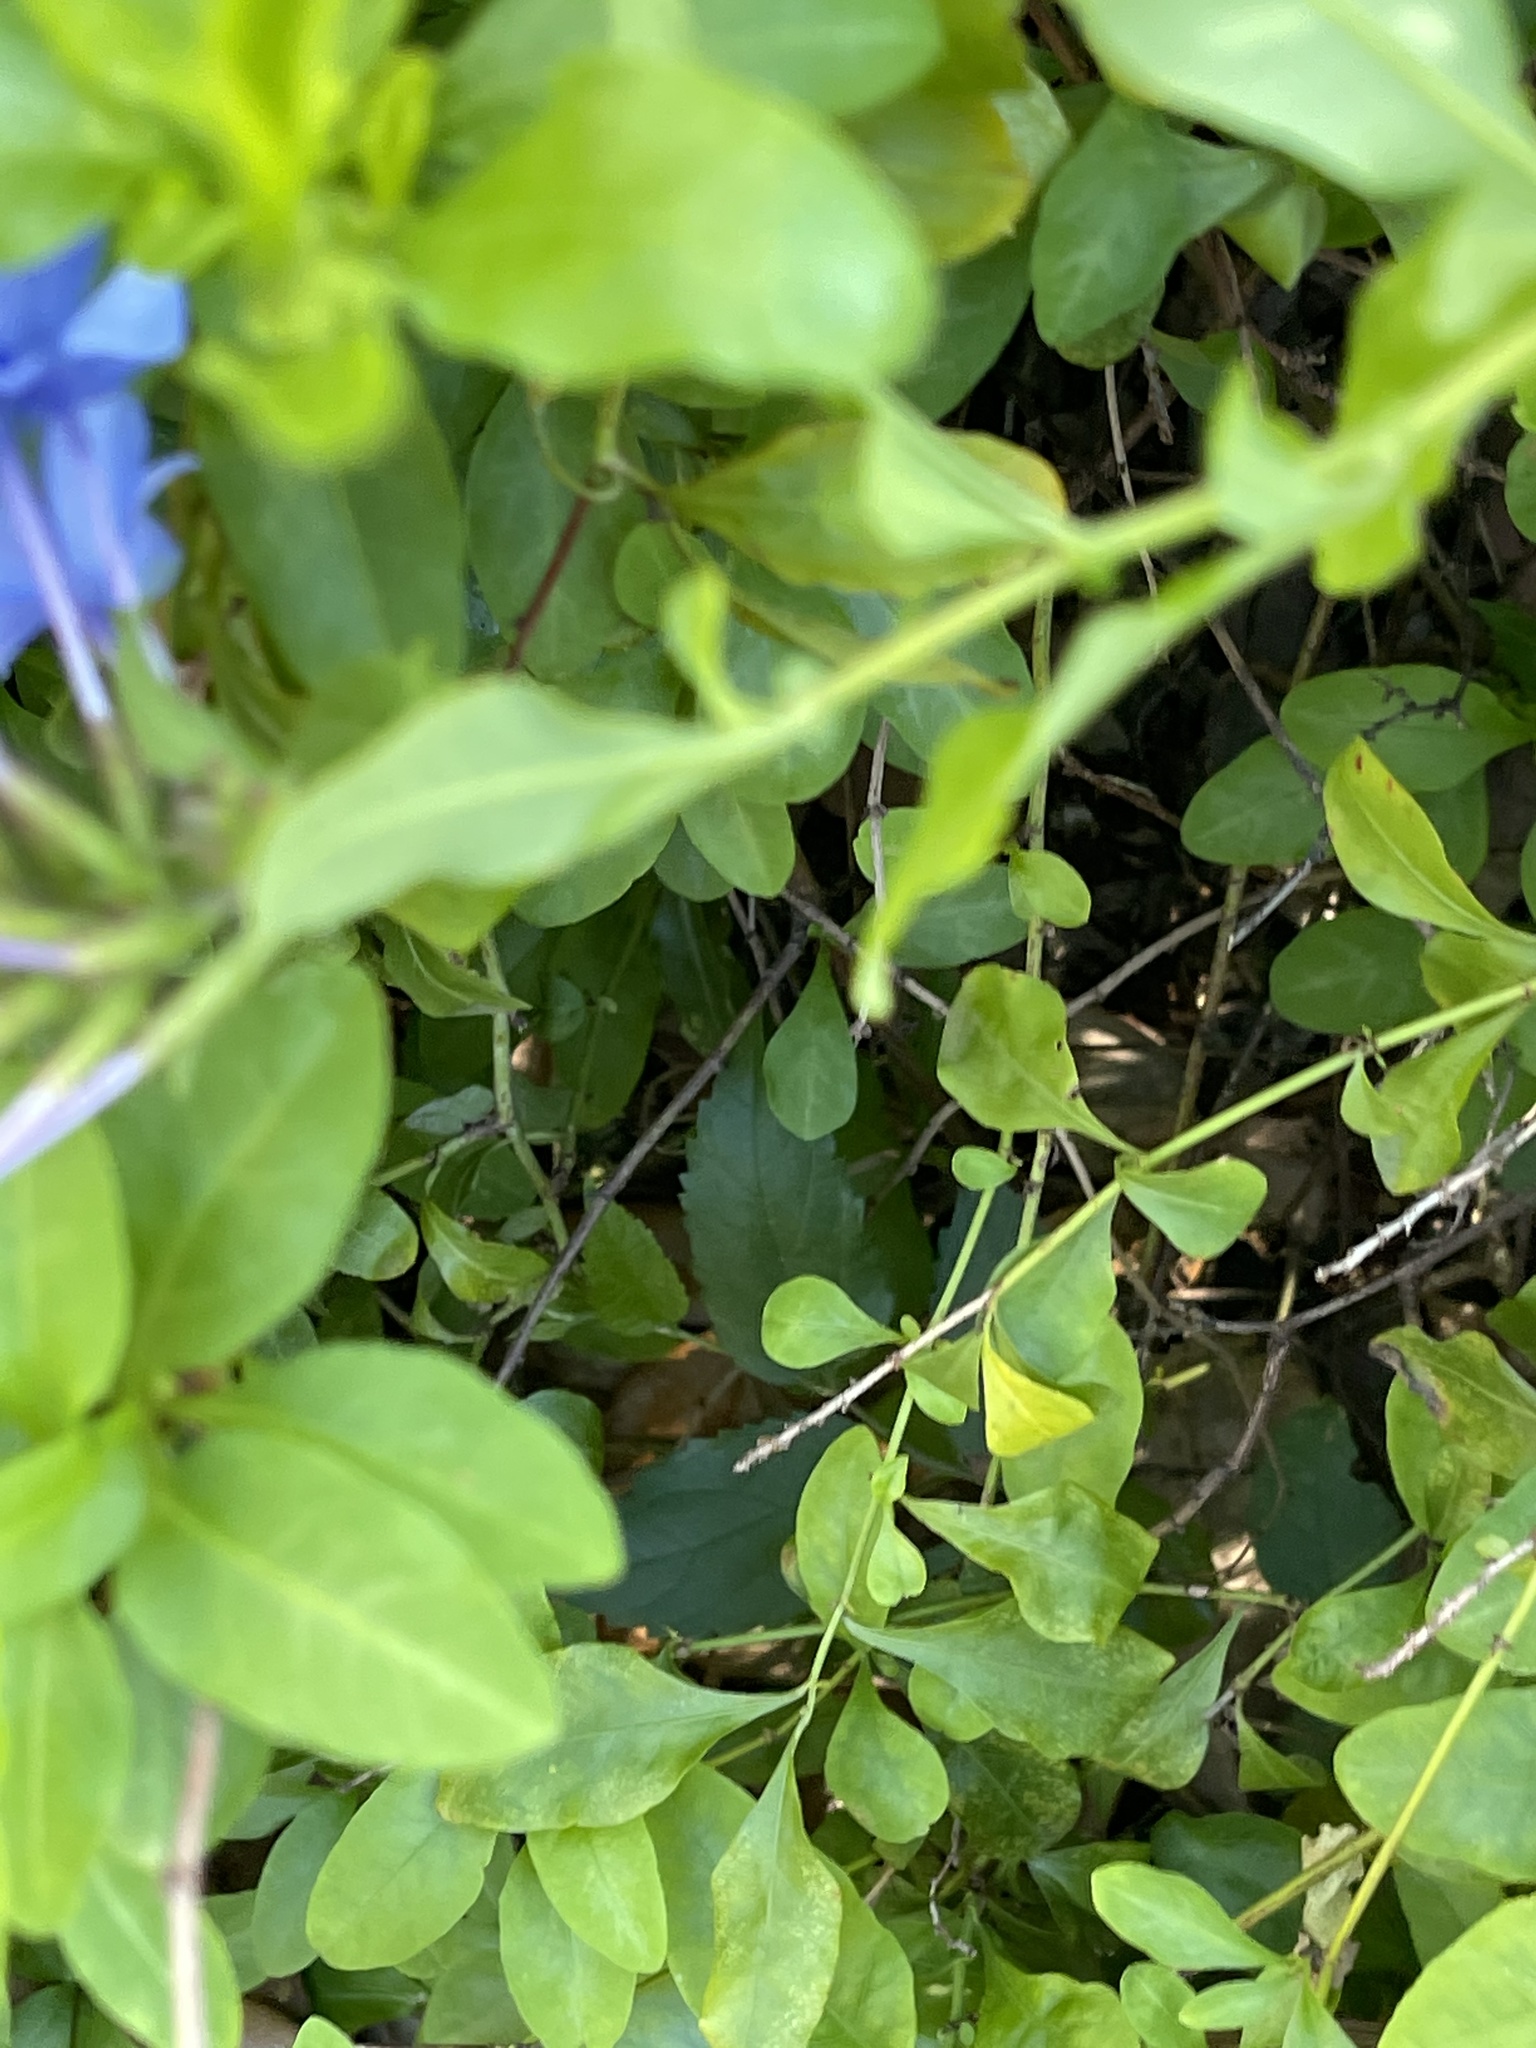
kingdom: Plantae
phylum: Tracheophyta
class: Magnoliopsida
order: Caryophyllales
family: Plumbaginaceae
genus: Plumbago
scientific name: Plumbago auriculata
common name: Cape leadwort
